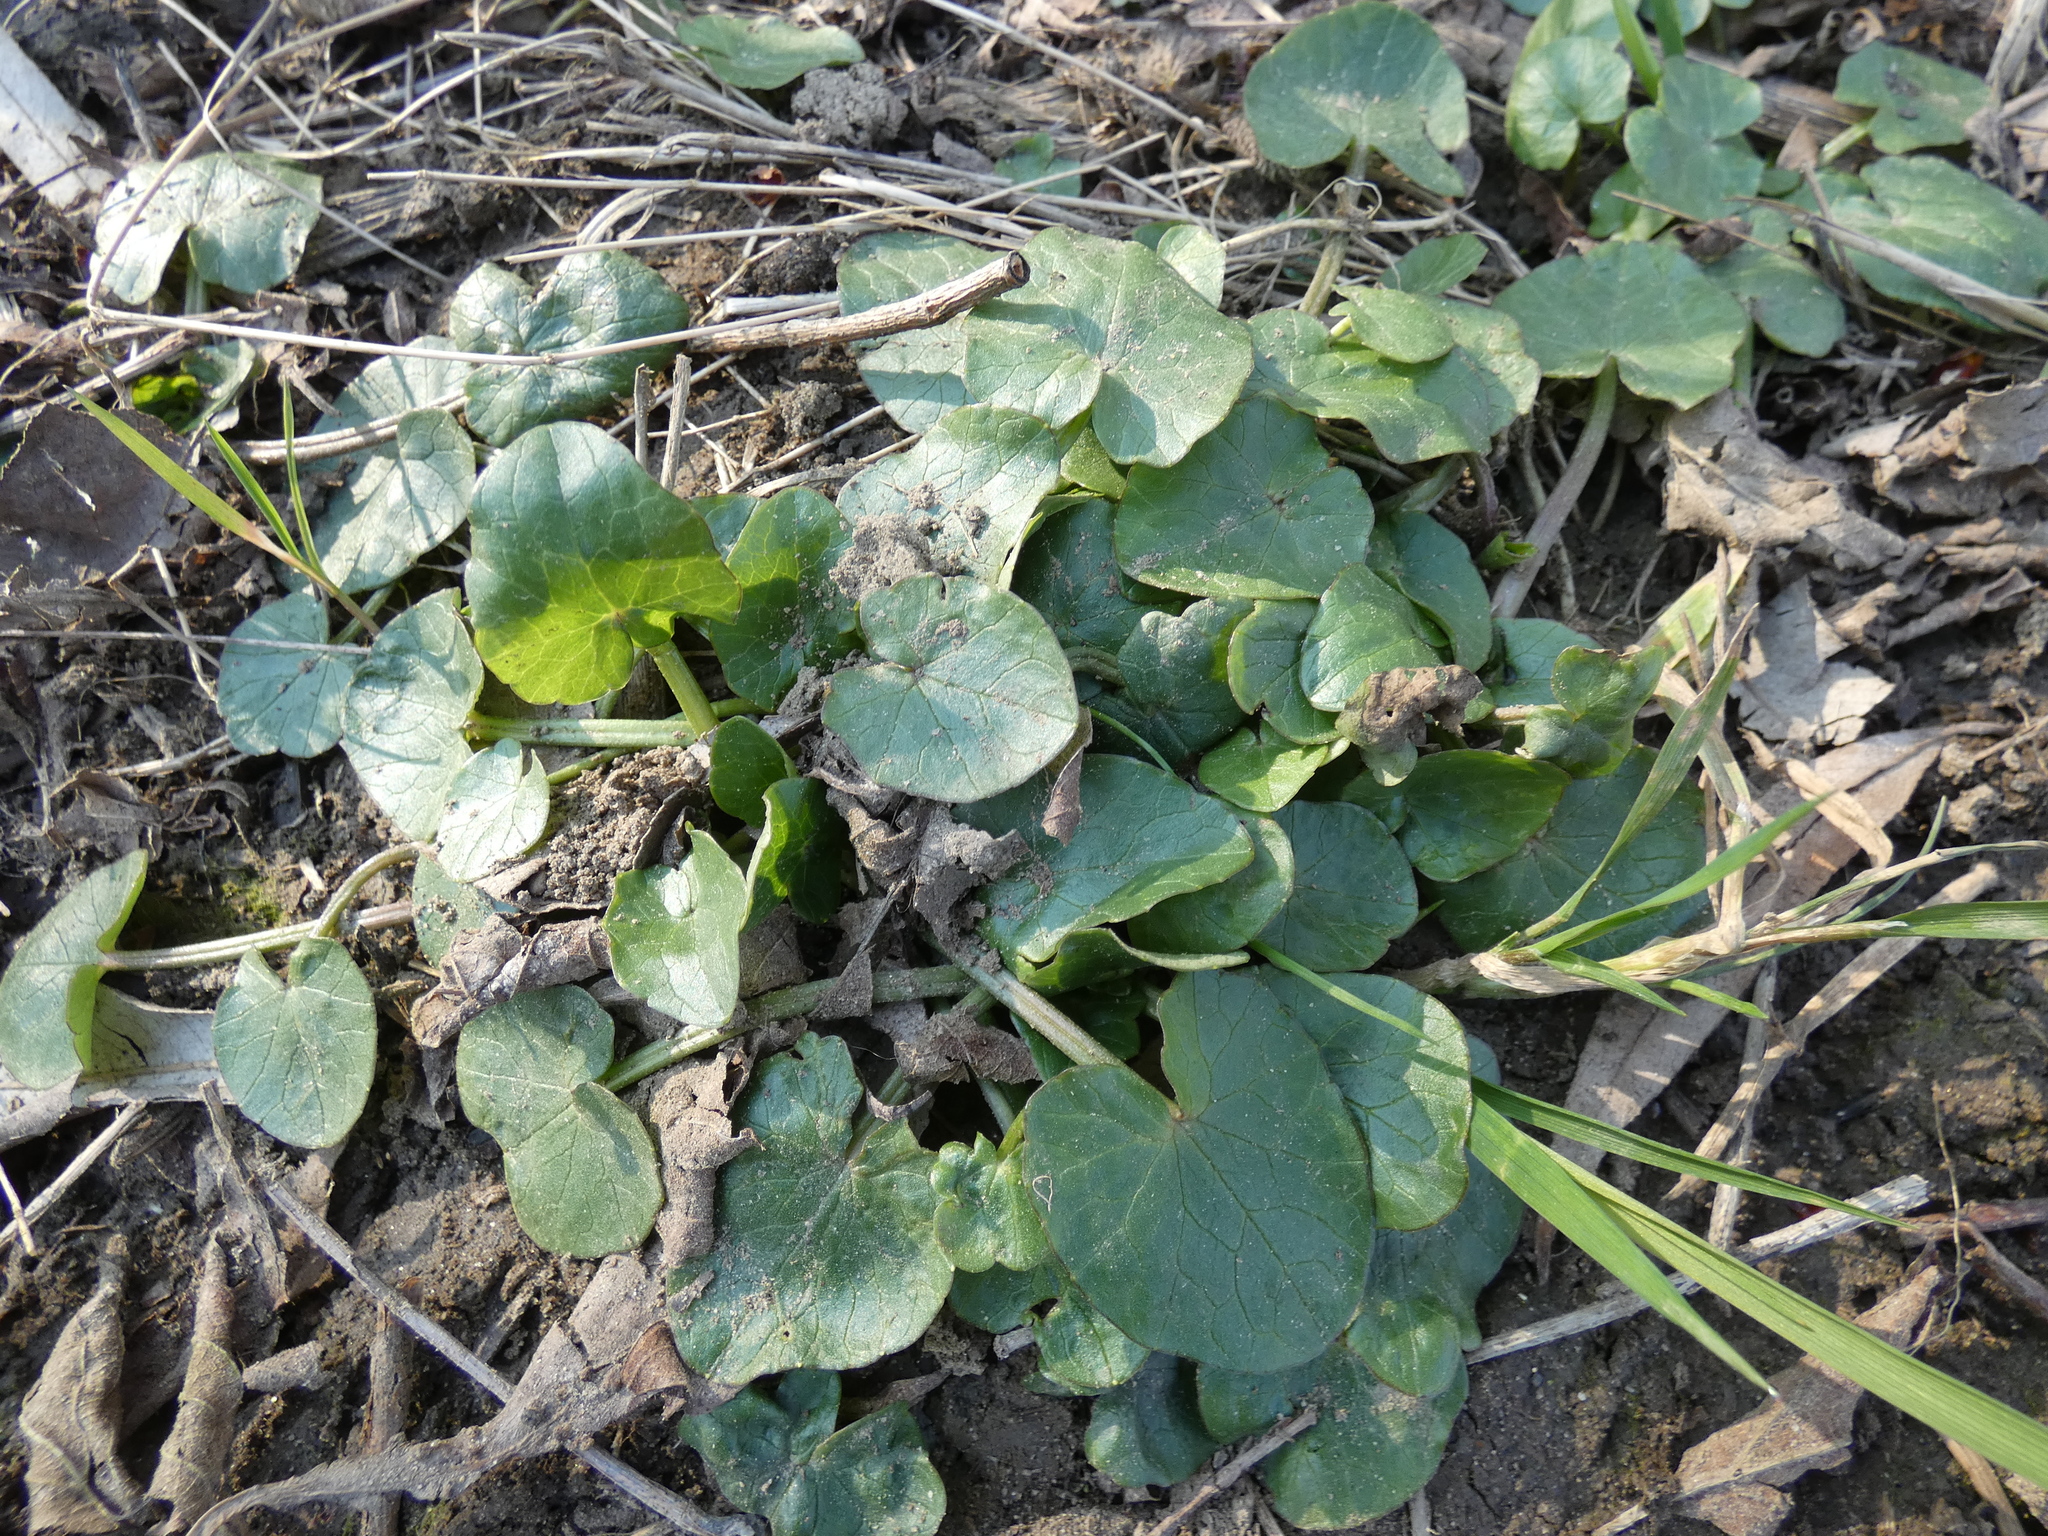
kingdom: Plantae
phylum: Tracheophyta
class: Magnoliopsida
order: Ranunculales
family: Ranunculaceae
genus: Ficaria
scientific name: Ficaria verna
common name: Lesser celandine
